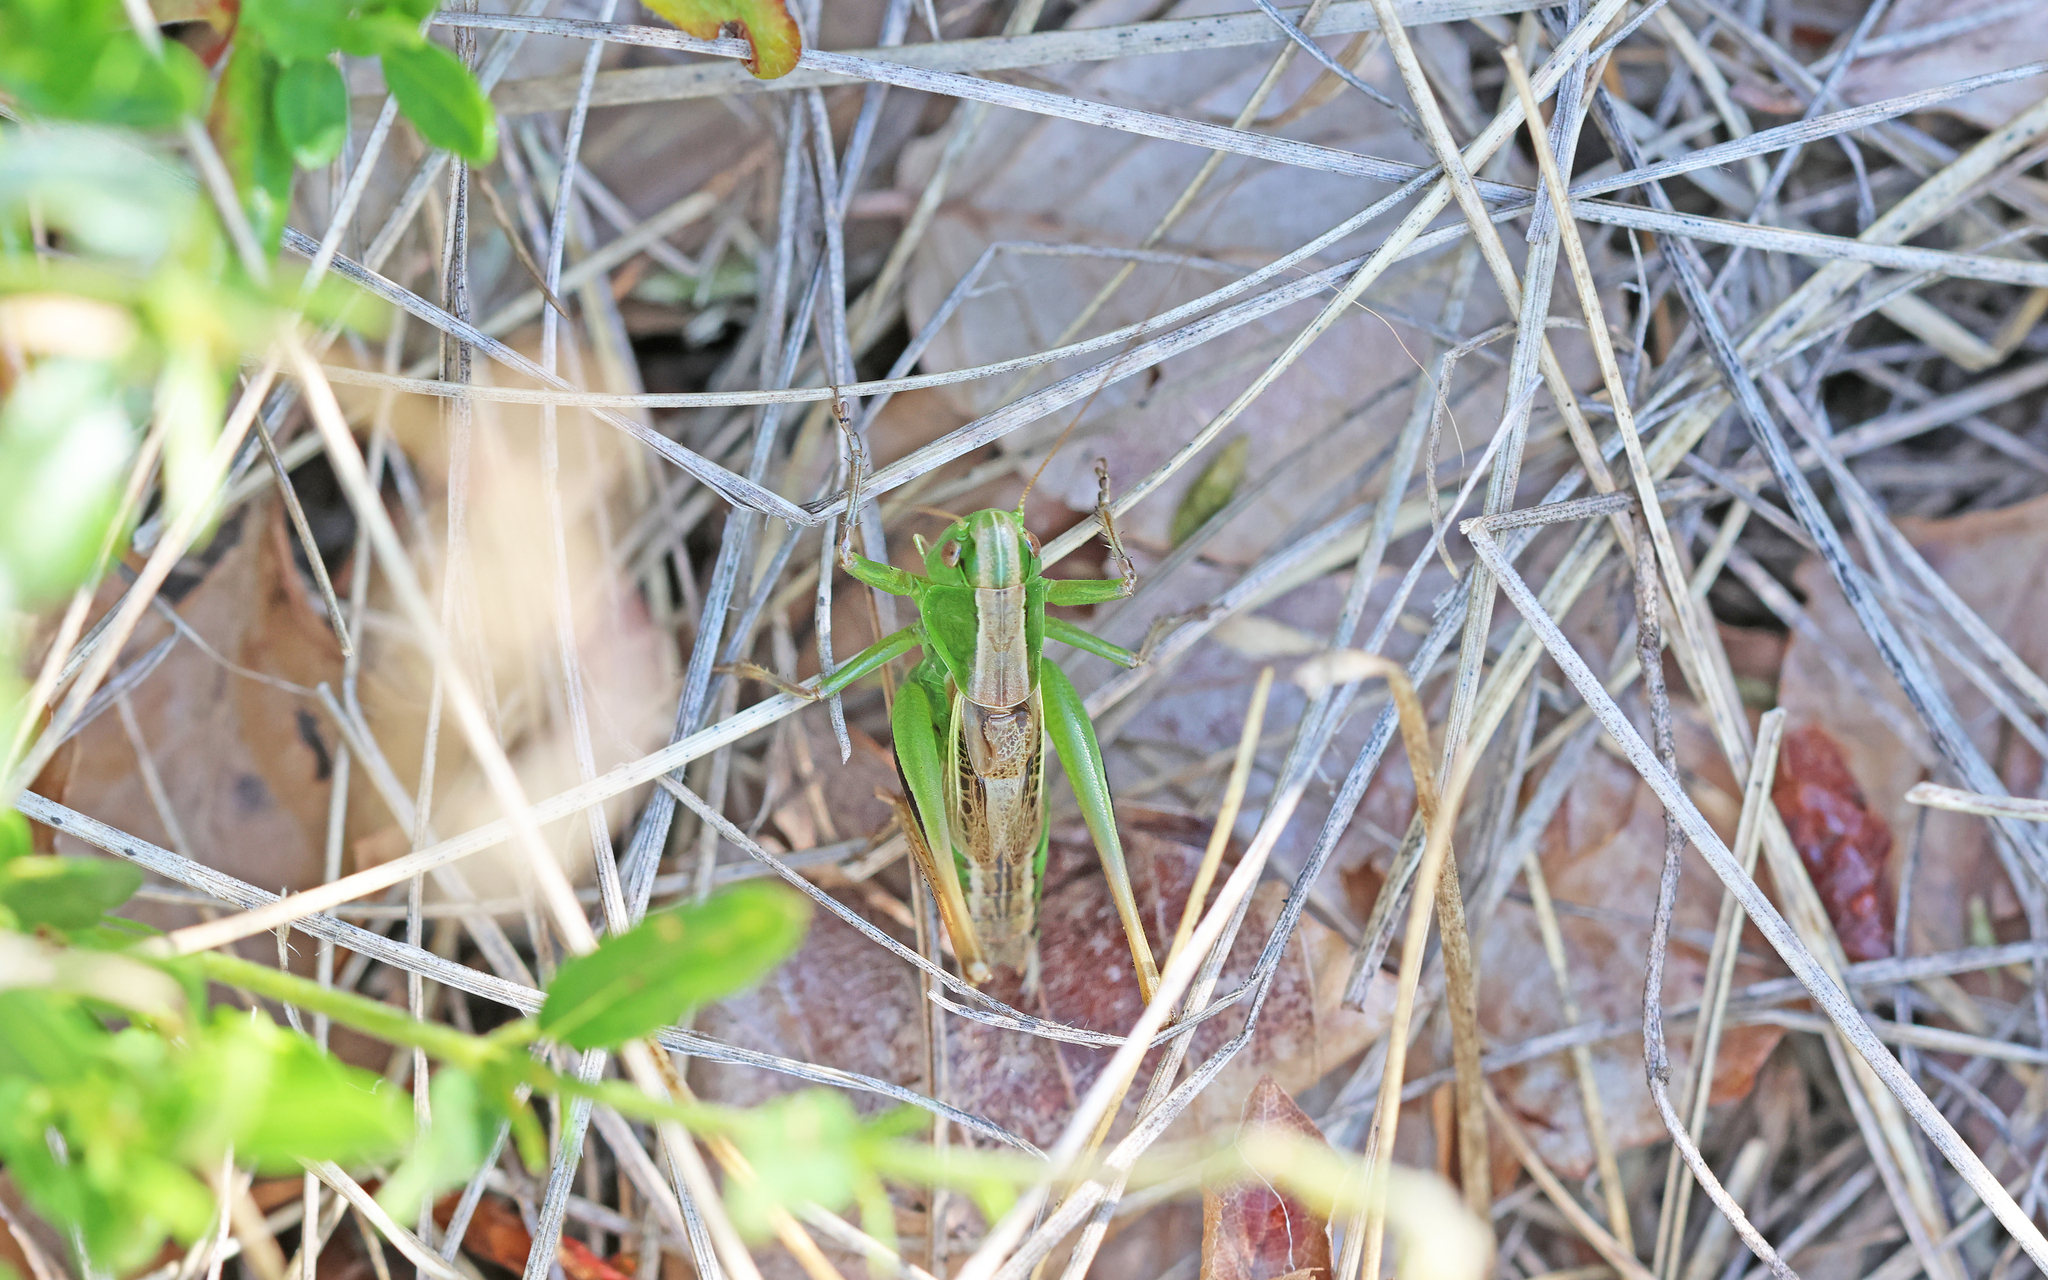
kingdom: Animalia
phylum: Arthropoda
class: Insecta
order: Orthoptera
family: Tettigoniidae
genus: Bicolorana
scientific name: Bicolorana kraussi
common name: Croatian meadow bush-cricket
